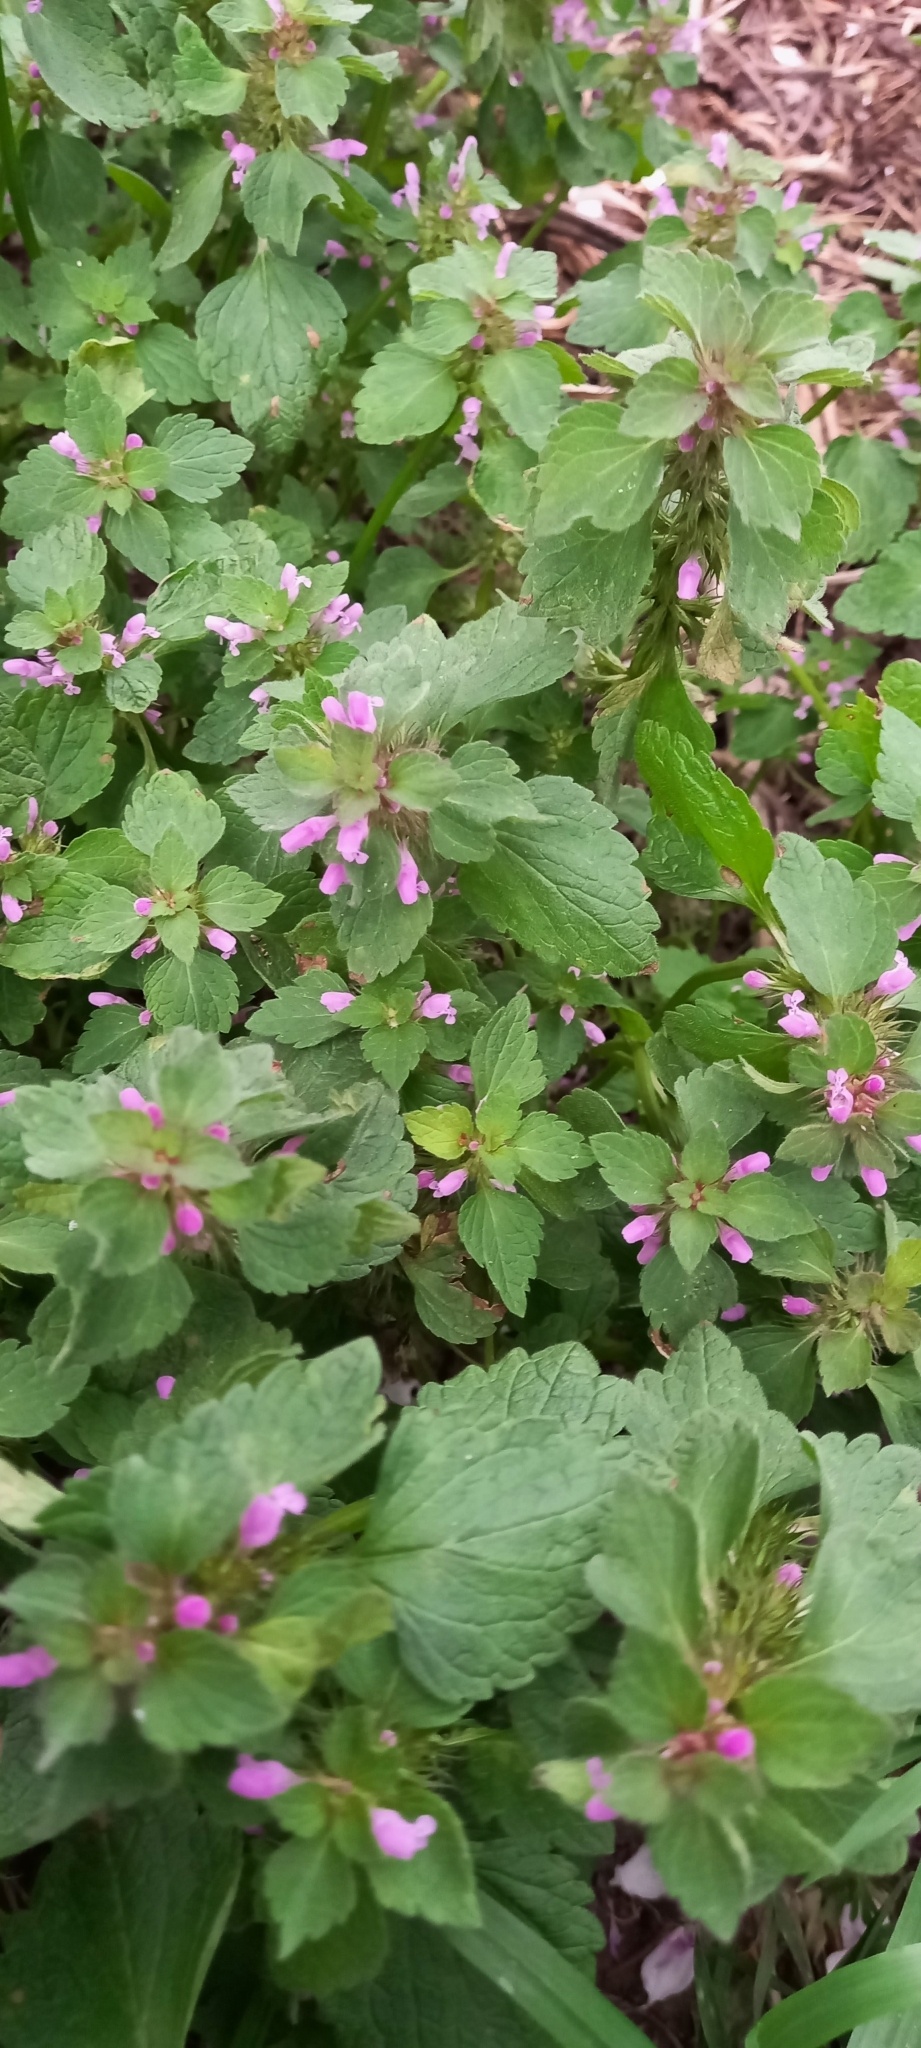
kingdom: Plantae
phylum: Tracheophyta
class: Magnoliopsida
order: Lamiales
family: Lamiaceae
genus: Lamium
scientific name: Lamium purpureum
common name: Red dead-nettle
